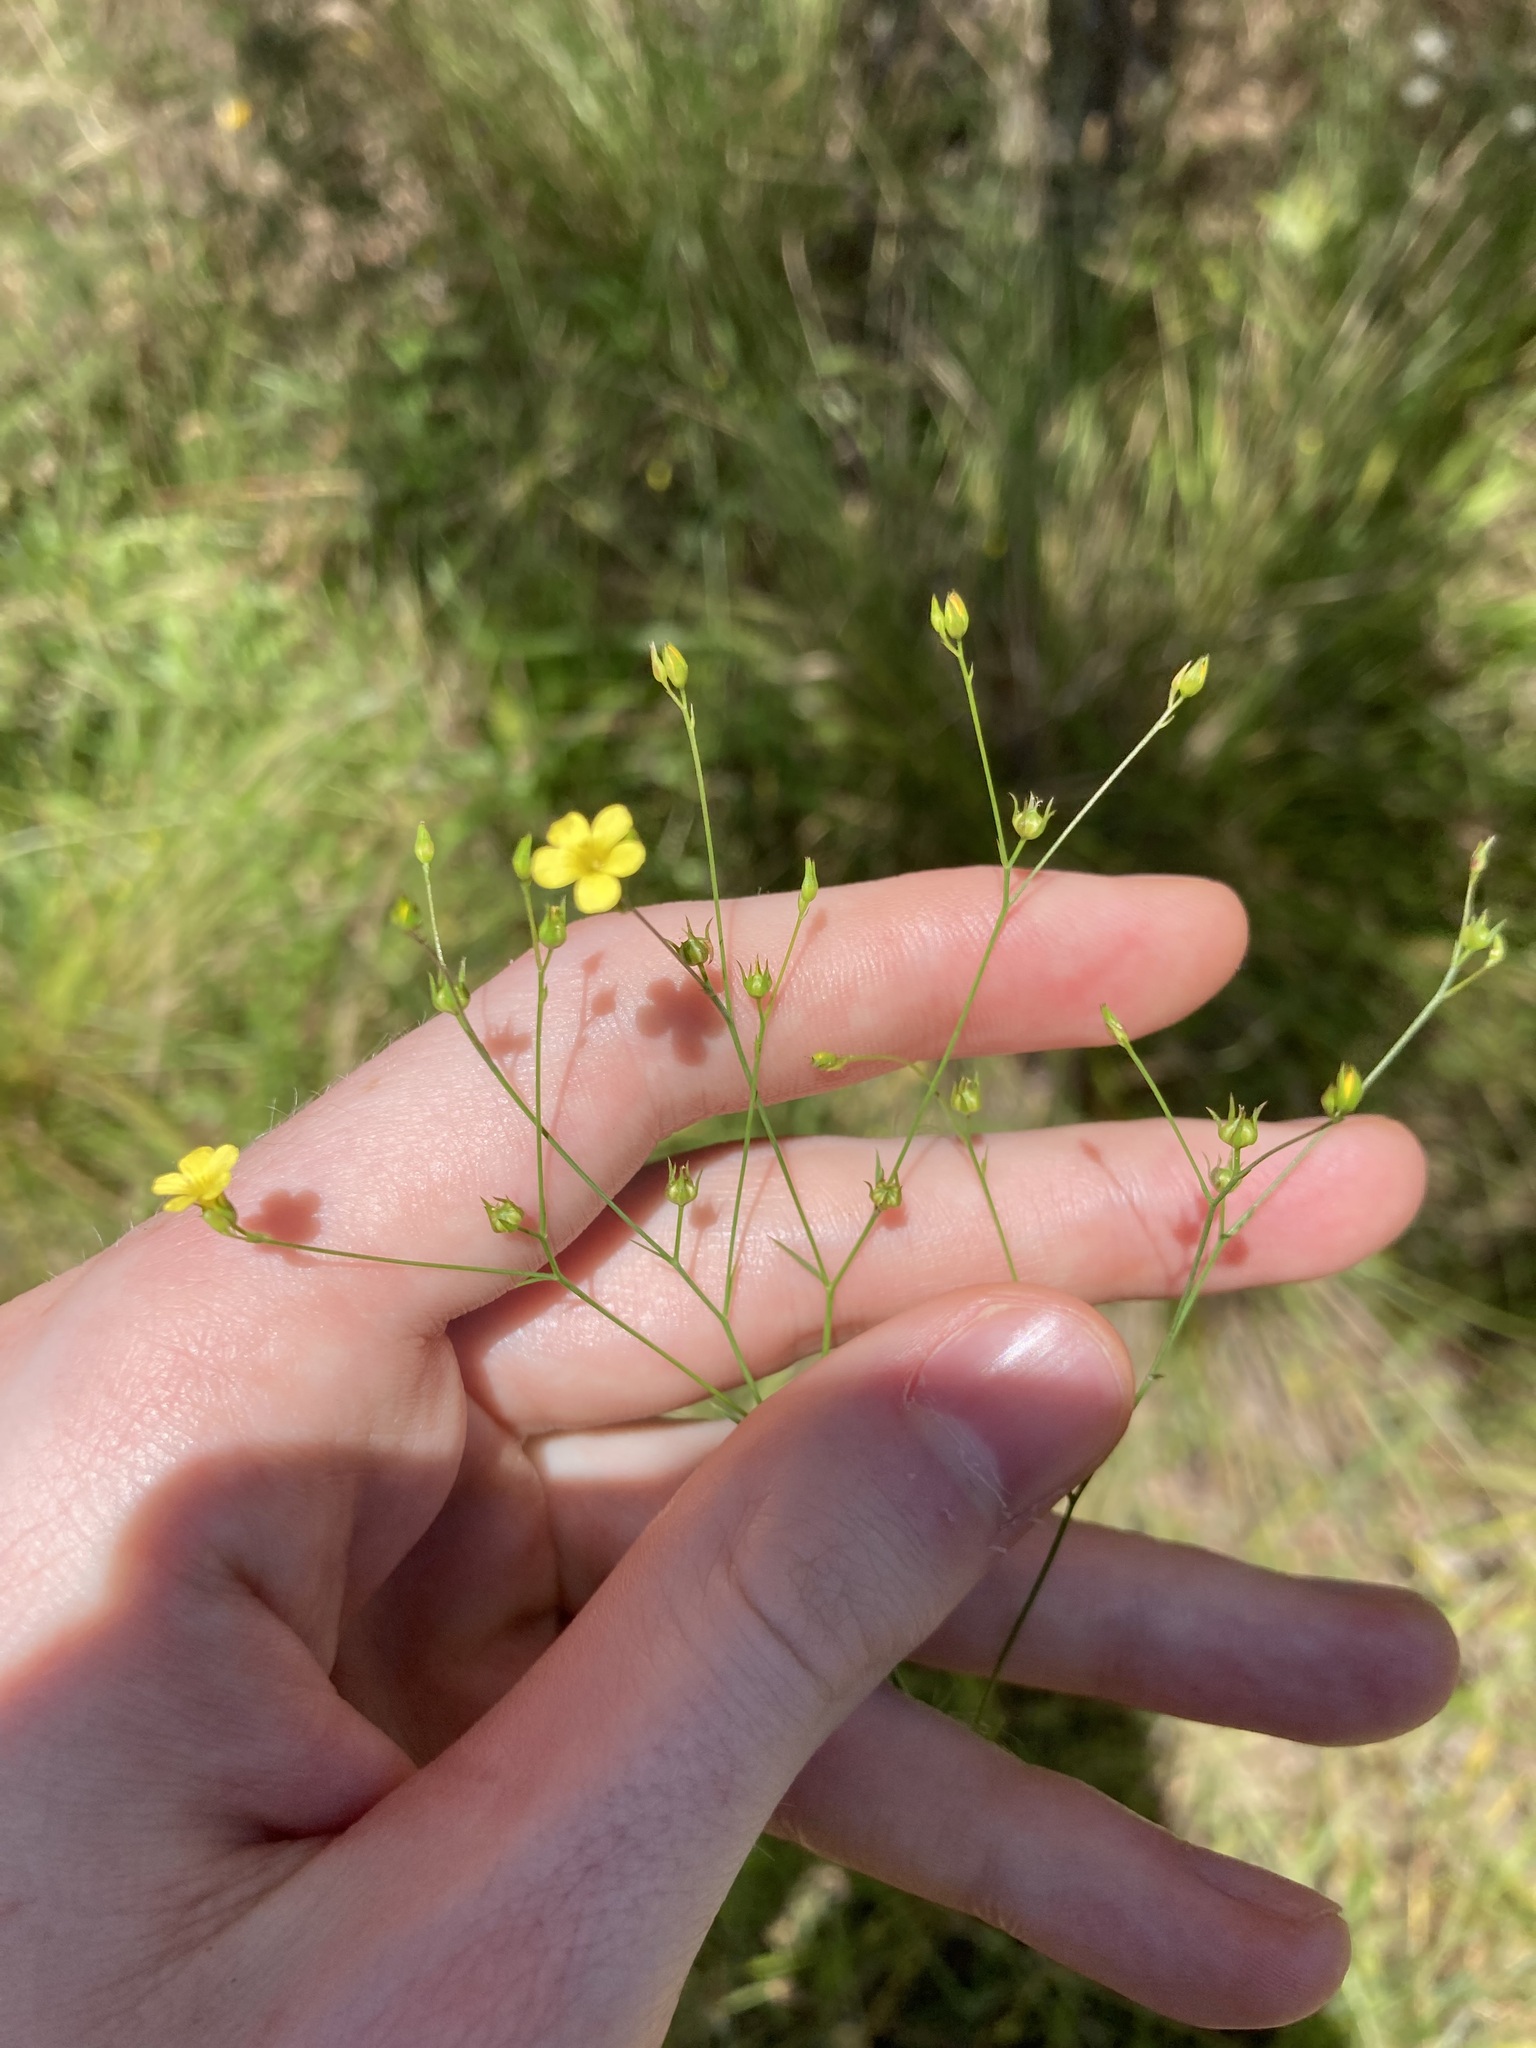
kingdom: Plantae
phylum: Tracheophyta
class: Magnoliopsida
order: Malpighiales
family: Linaceae
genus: Linum
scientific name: Linum trigynum
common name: French flax
